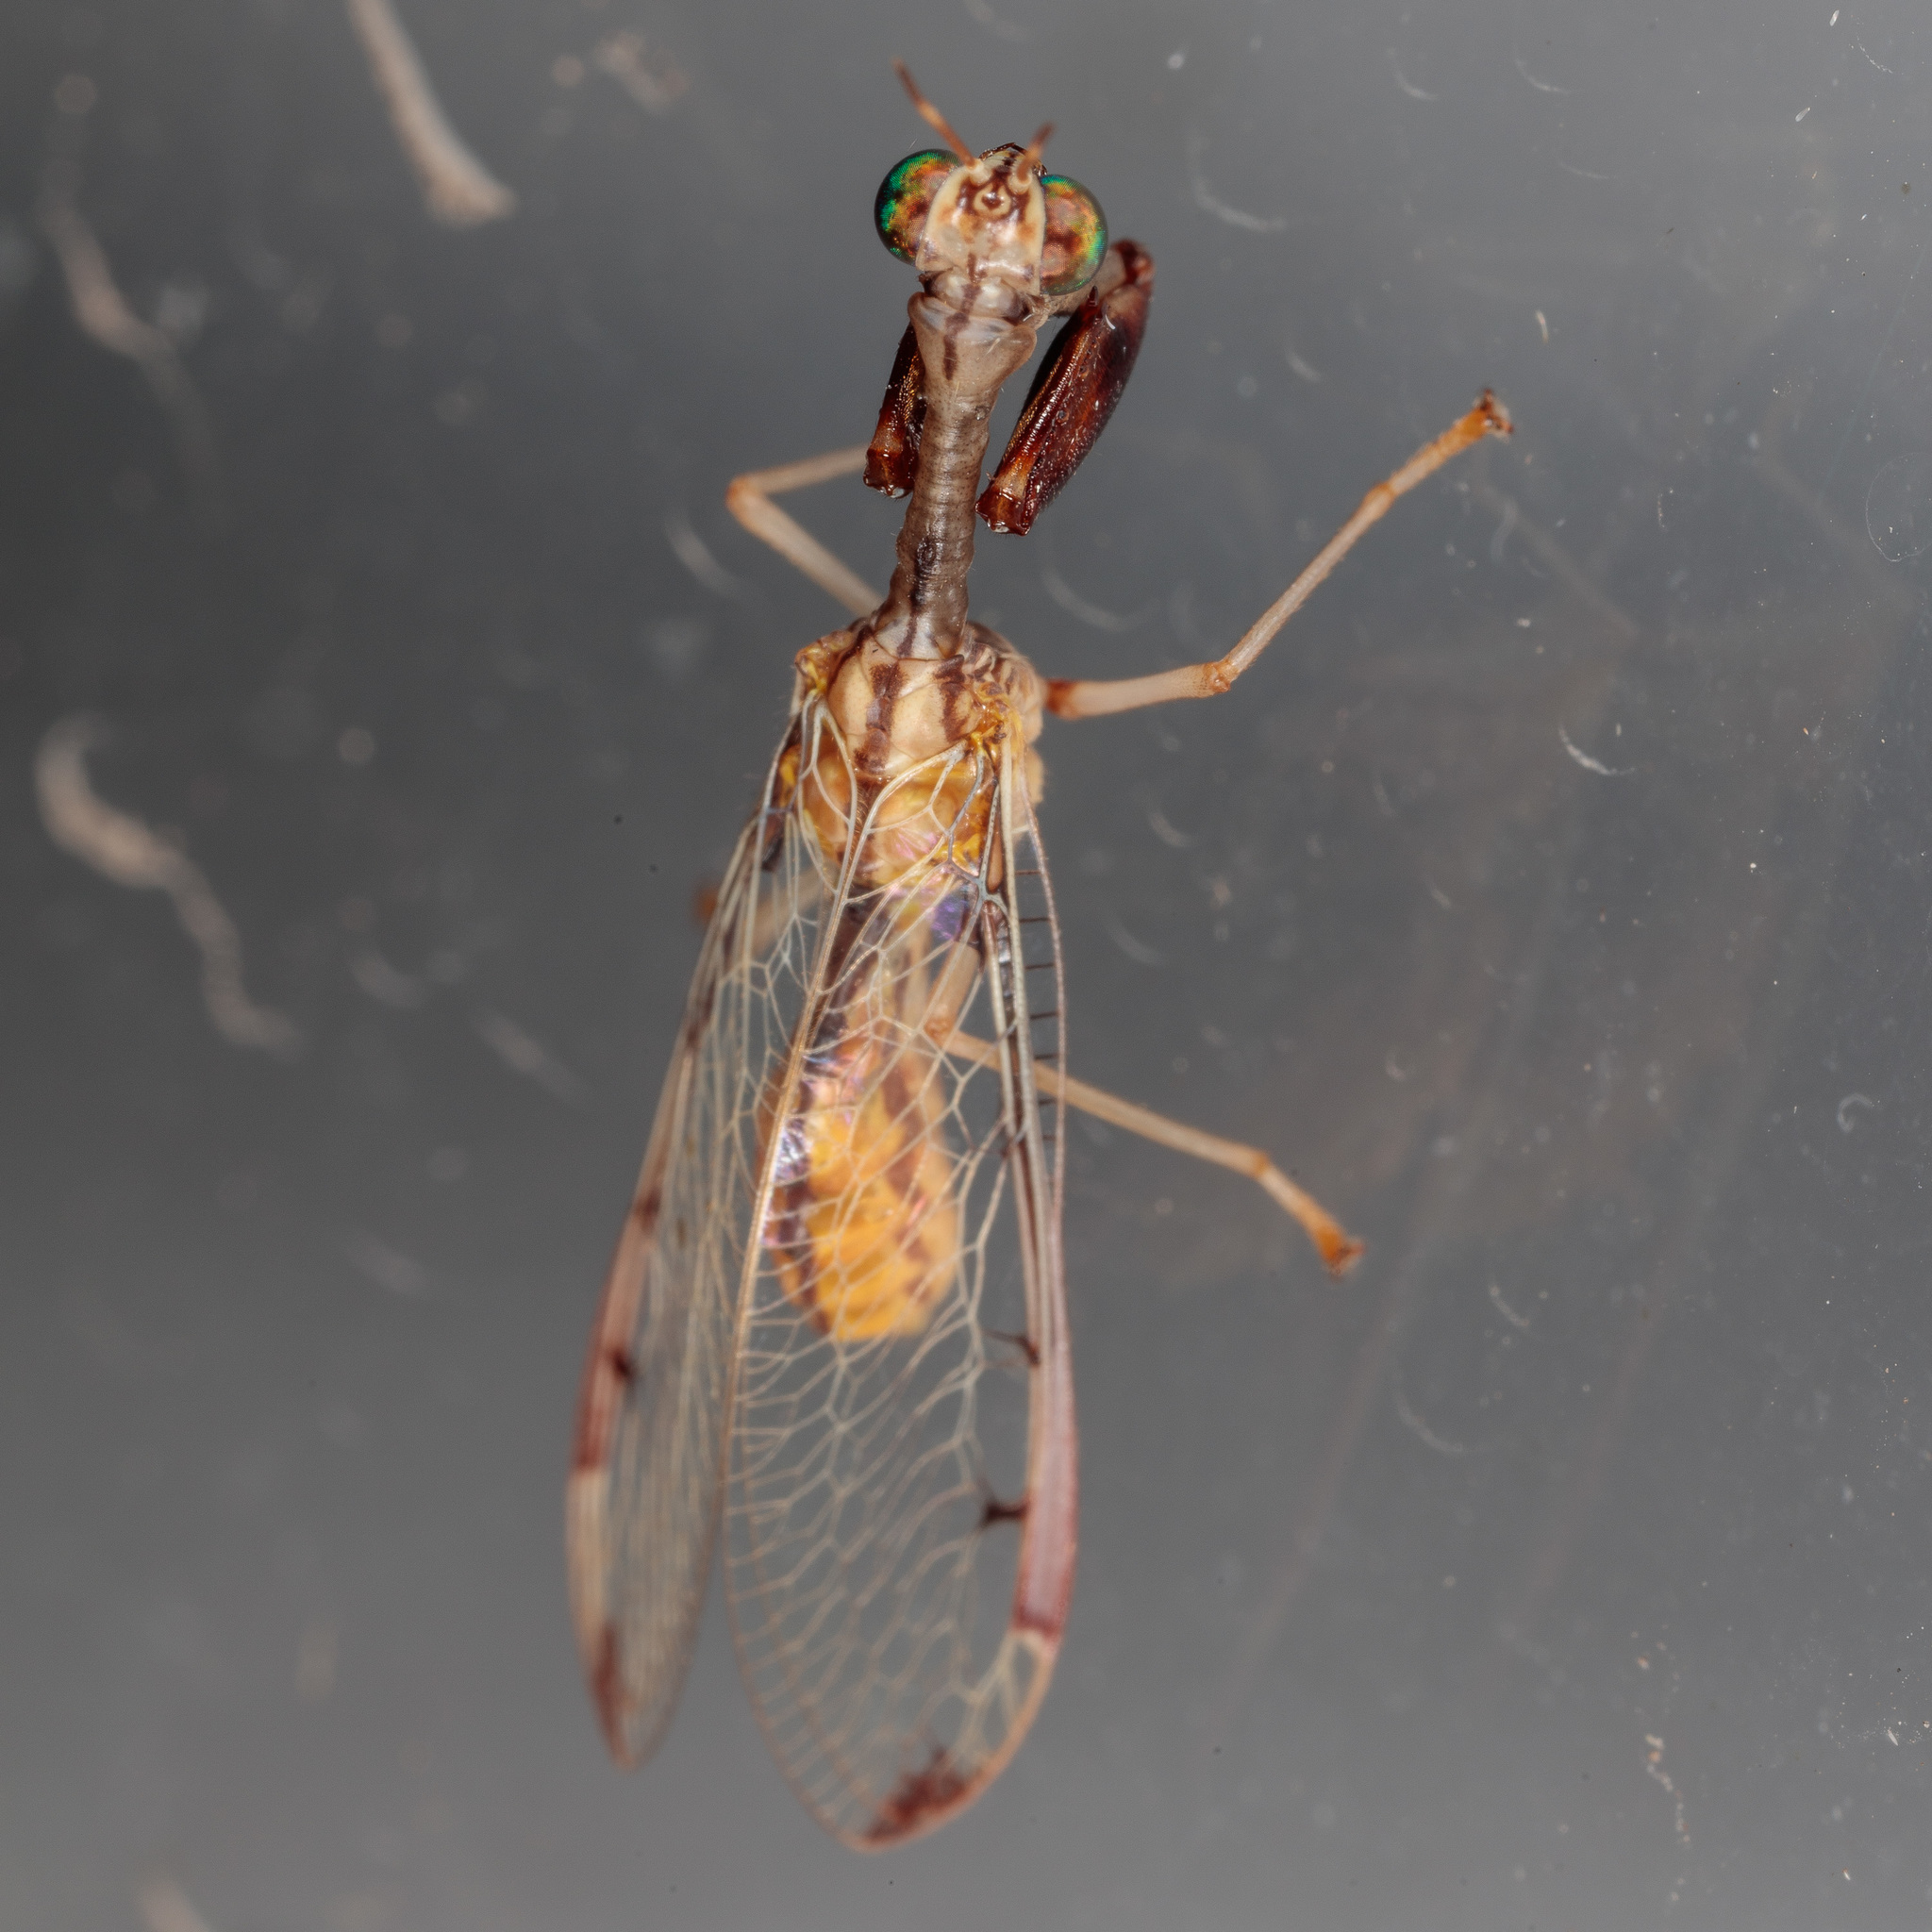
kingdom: Animalia
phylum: Arthropoda
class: Insecta
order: Neuroptera
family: Mantispidae
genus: Dicromantispa
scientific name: Dicromantispa interrupta
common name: Four-spotted mantidfly
